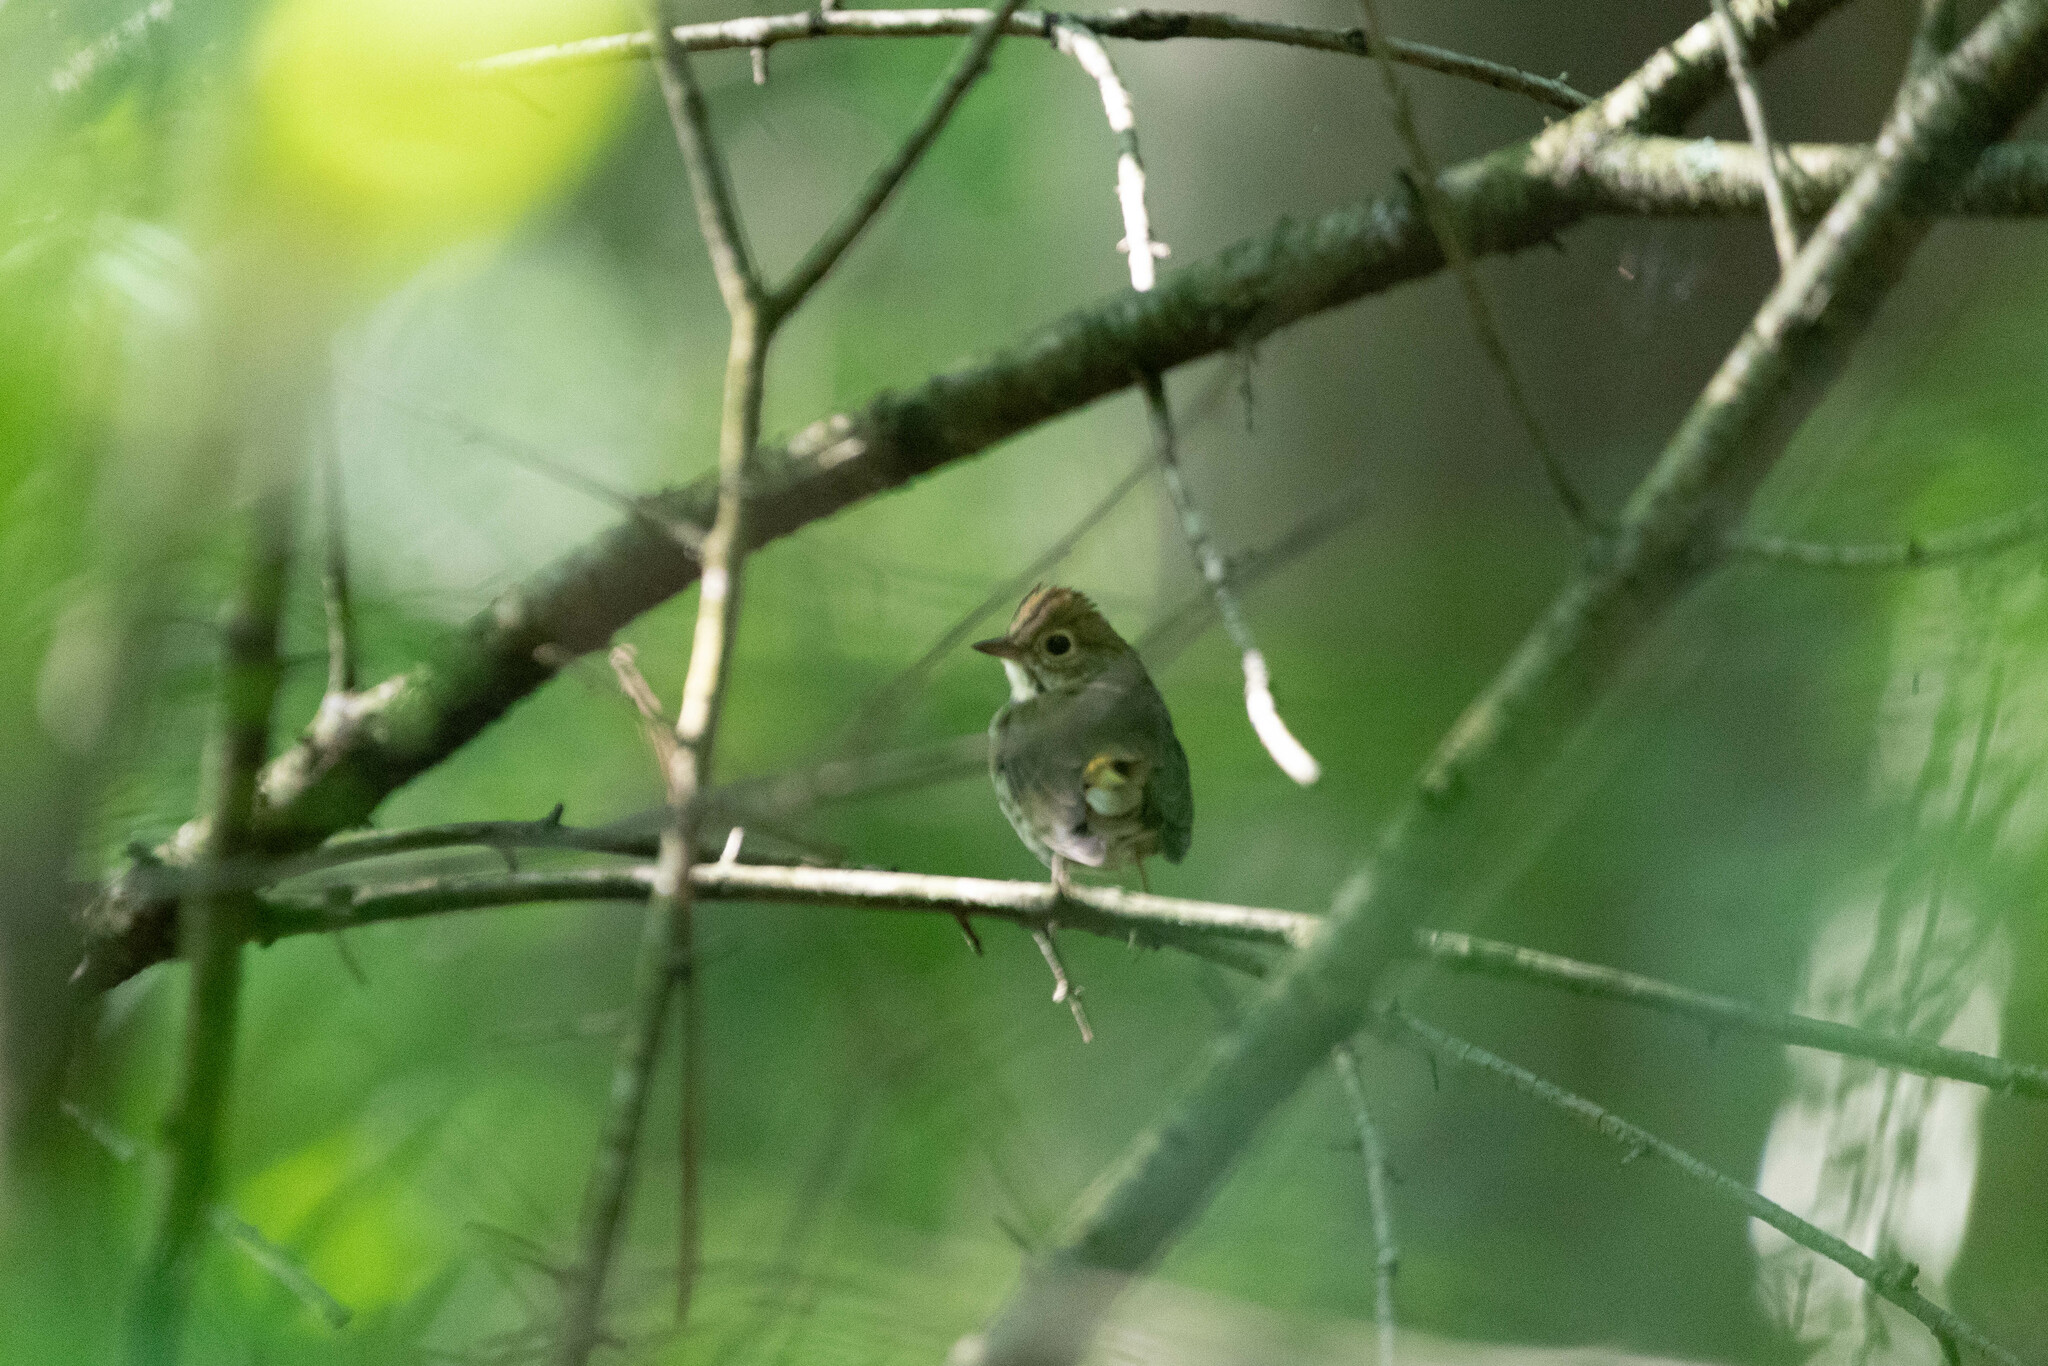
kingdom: Animalia
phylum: Chordata
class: Aves
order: Passeriformes
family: Parulidae
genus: Seiurus
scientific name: Seiurus aurocapilla
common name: Ovenbird
